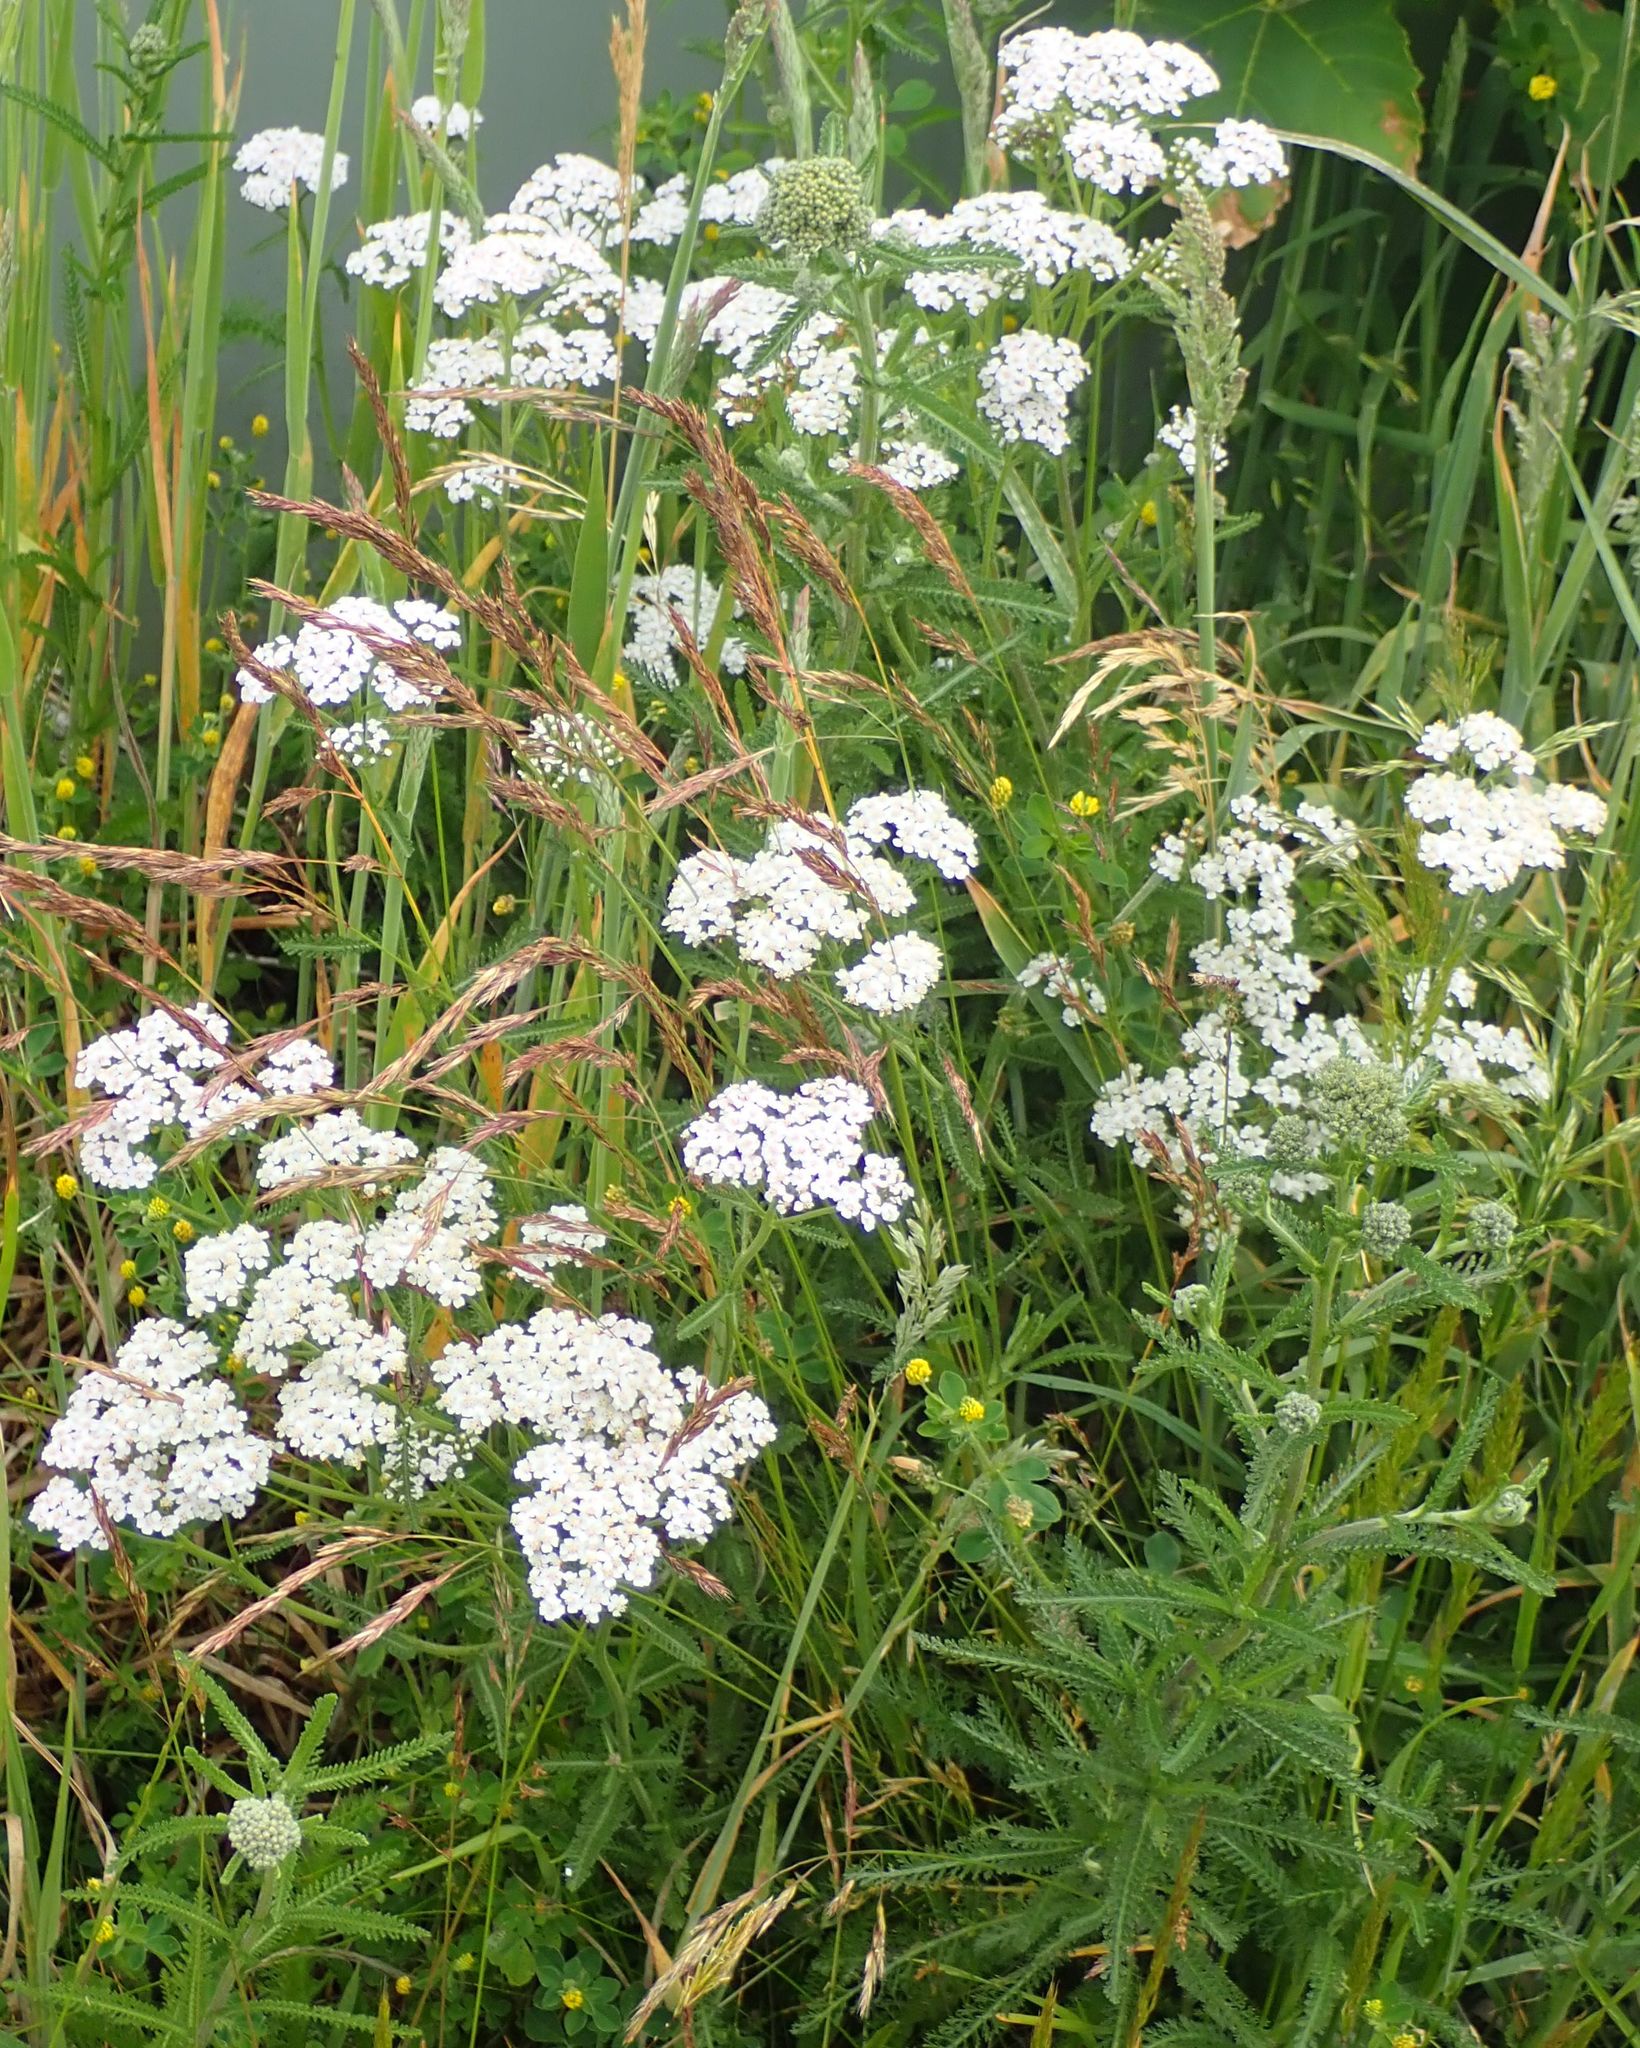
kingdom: Plantae
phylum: Tracheophyta
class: Magnoliopsida
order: Asterales
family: Asteraceae
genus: Achillea
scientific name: Achillea millefolium
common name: Yarrow
